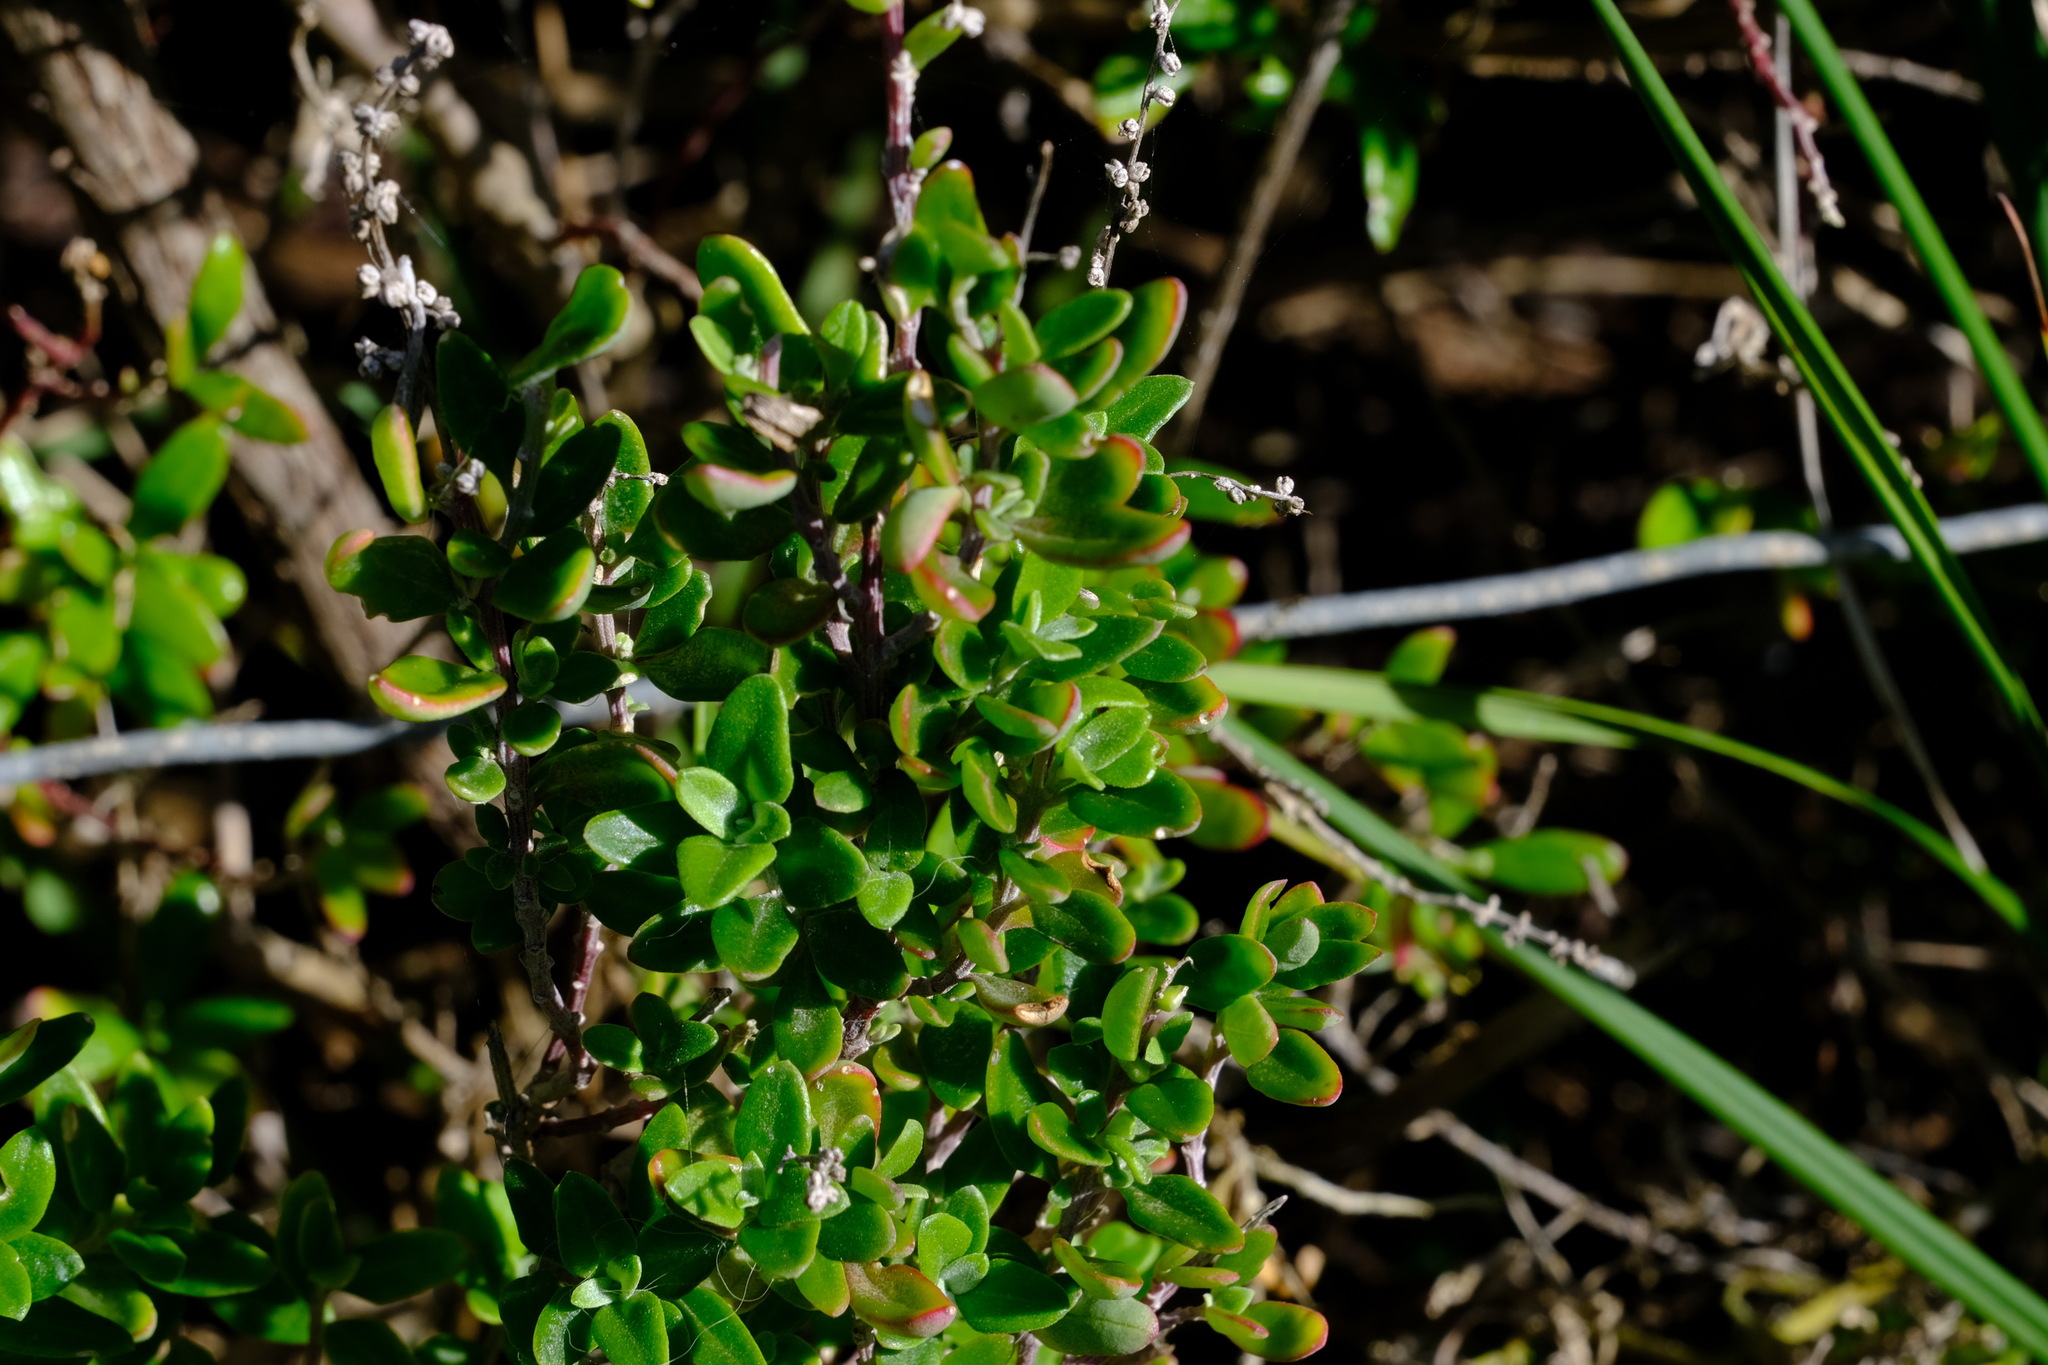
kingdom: Plantae
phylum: Tracheophyta
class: Magnoliopsida
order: Caryophyllales
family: Amaranthaceae
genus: Chenopodium
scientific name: Chenopodium candolleanum
